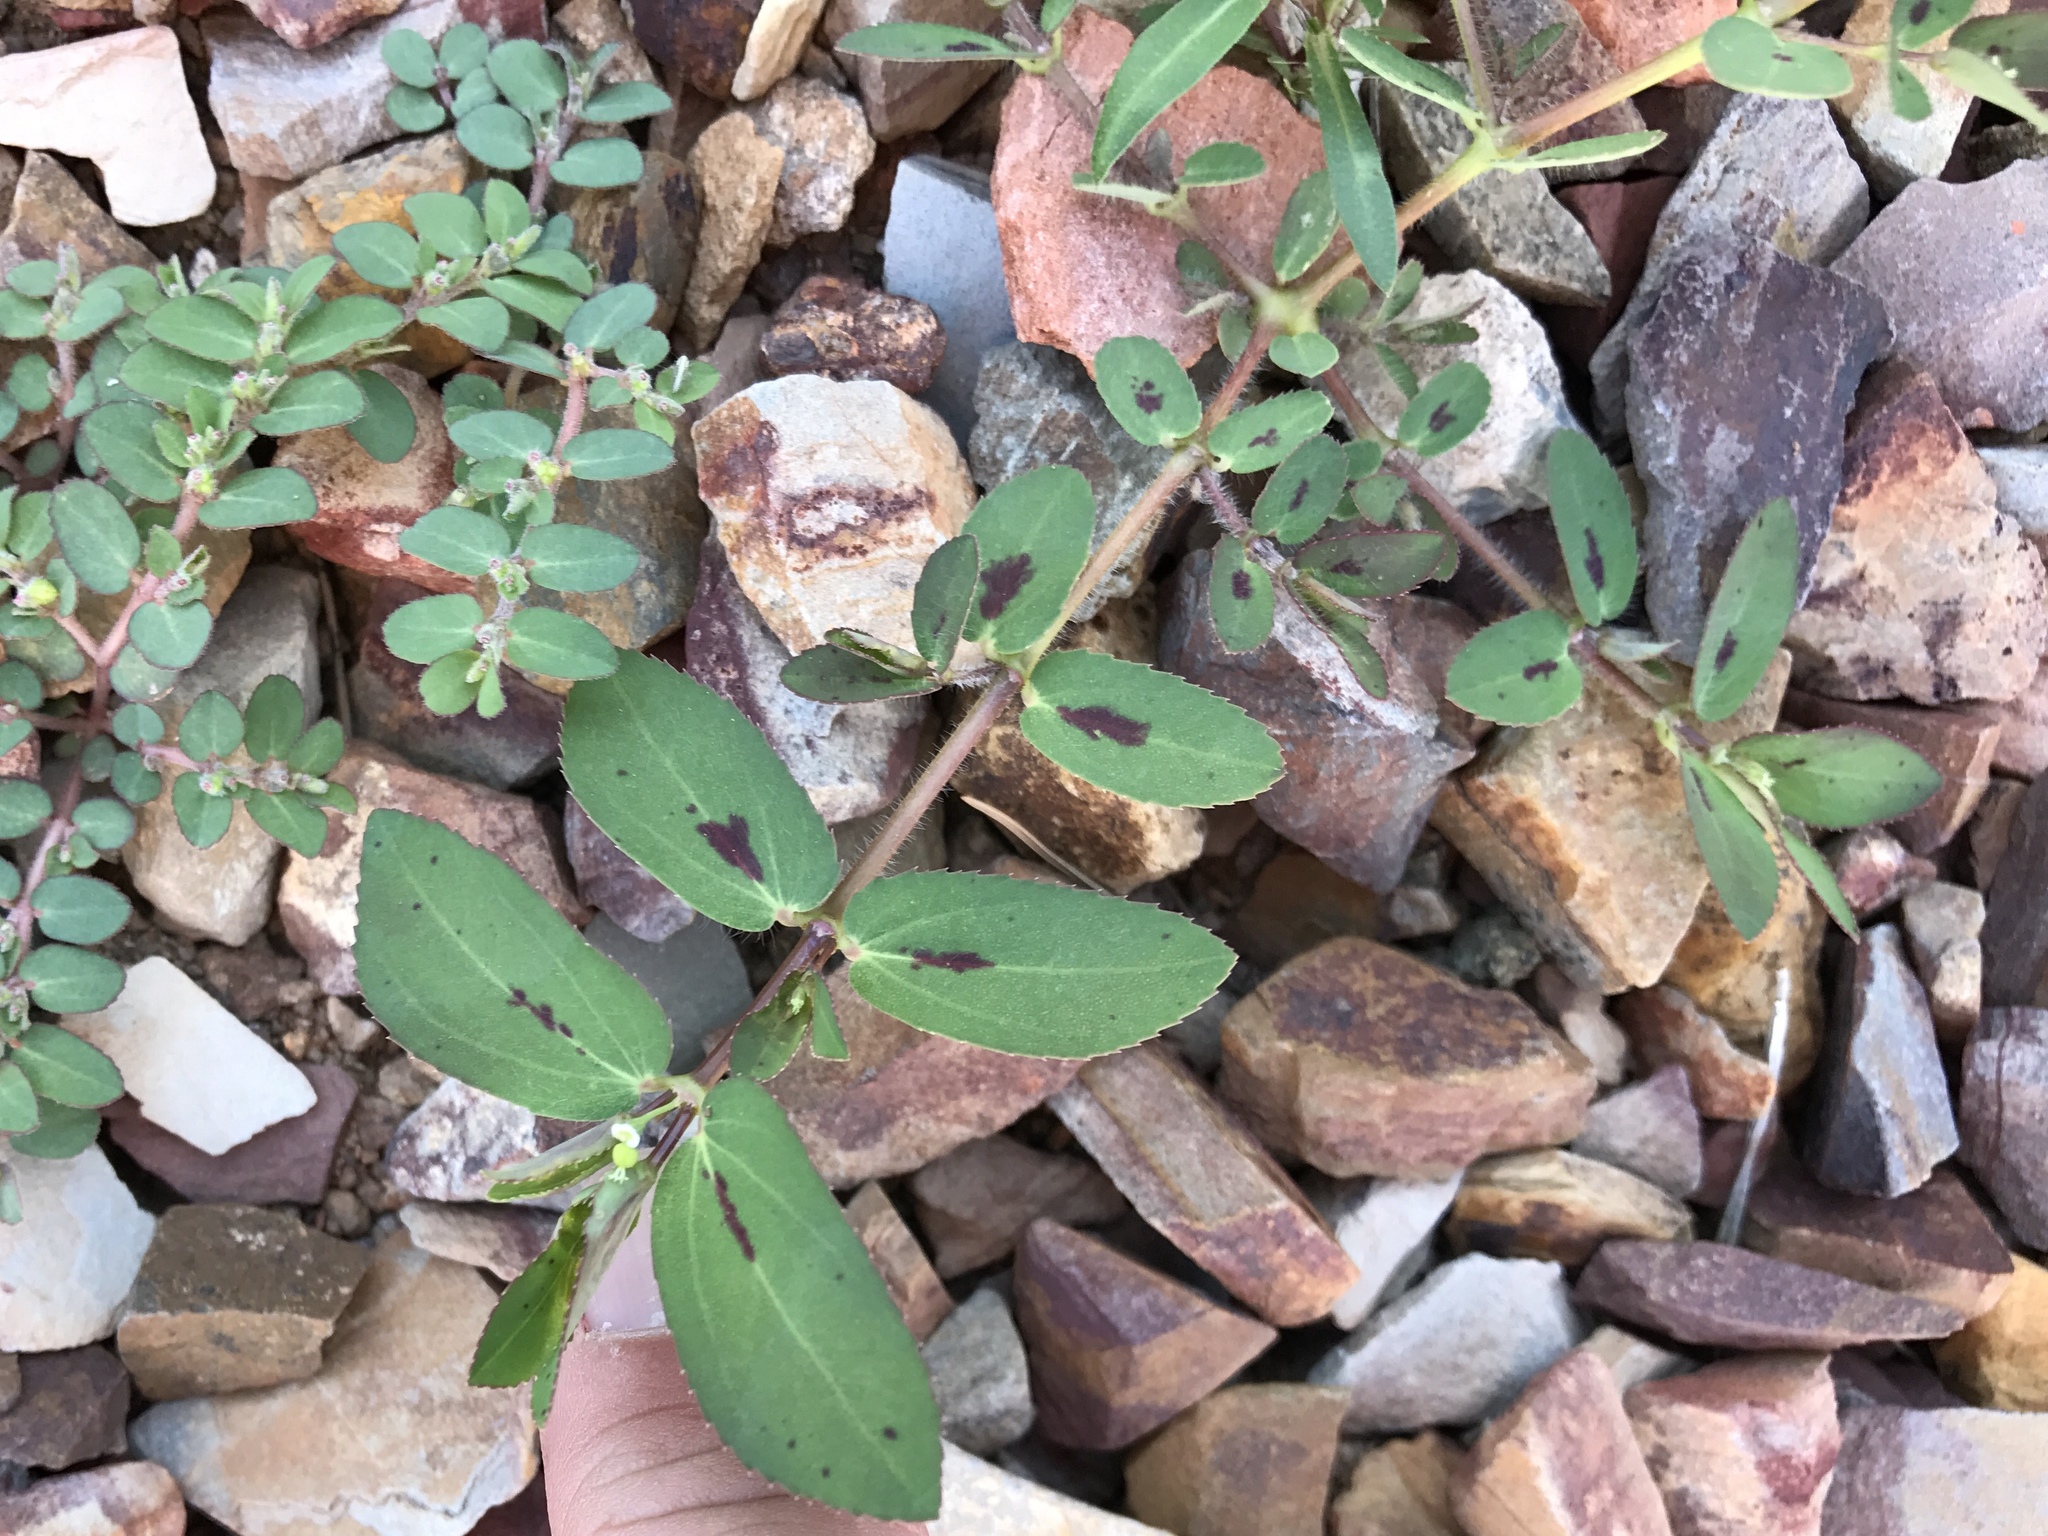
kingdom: Plantae
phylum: Tracheophyta
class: Magnoliopsida
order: Malpighiales
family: Euphorbiaceae
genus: Euphorbia
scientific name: Euphorbia hyssopifolia
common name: Hyssopleaf sandmat
